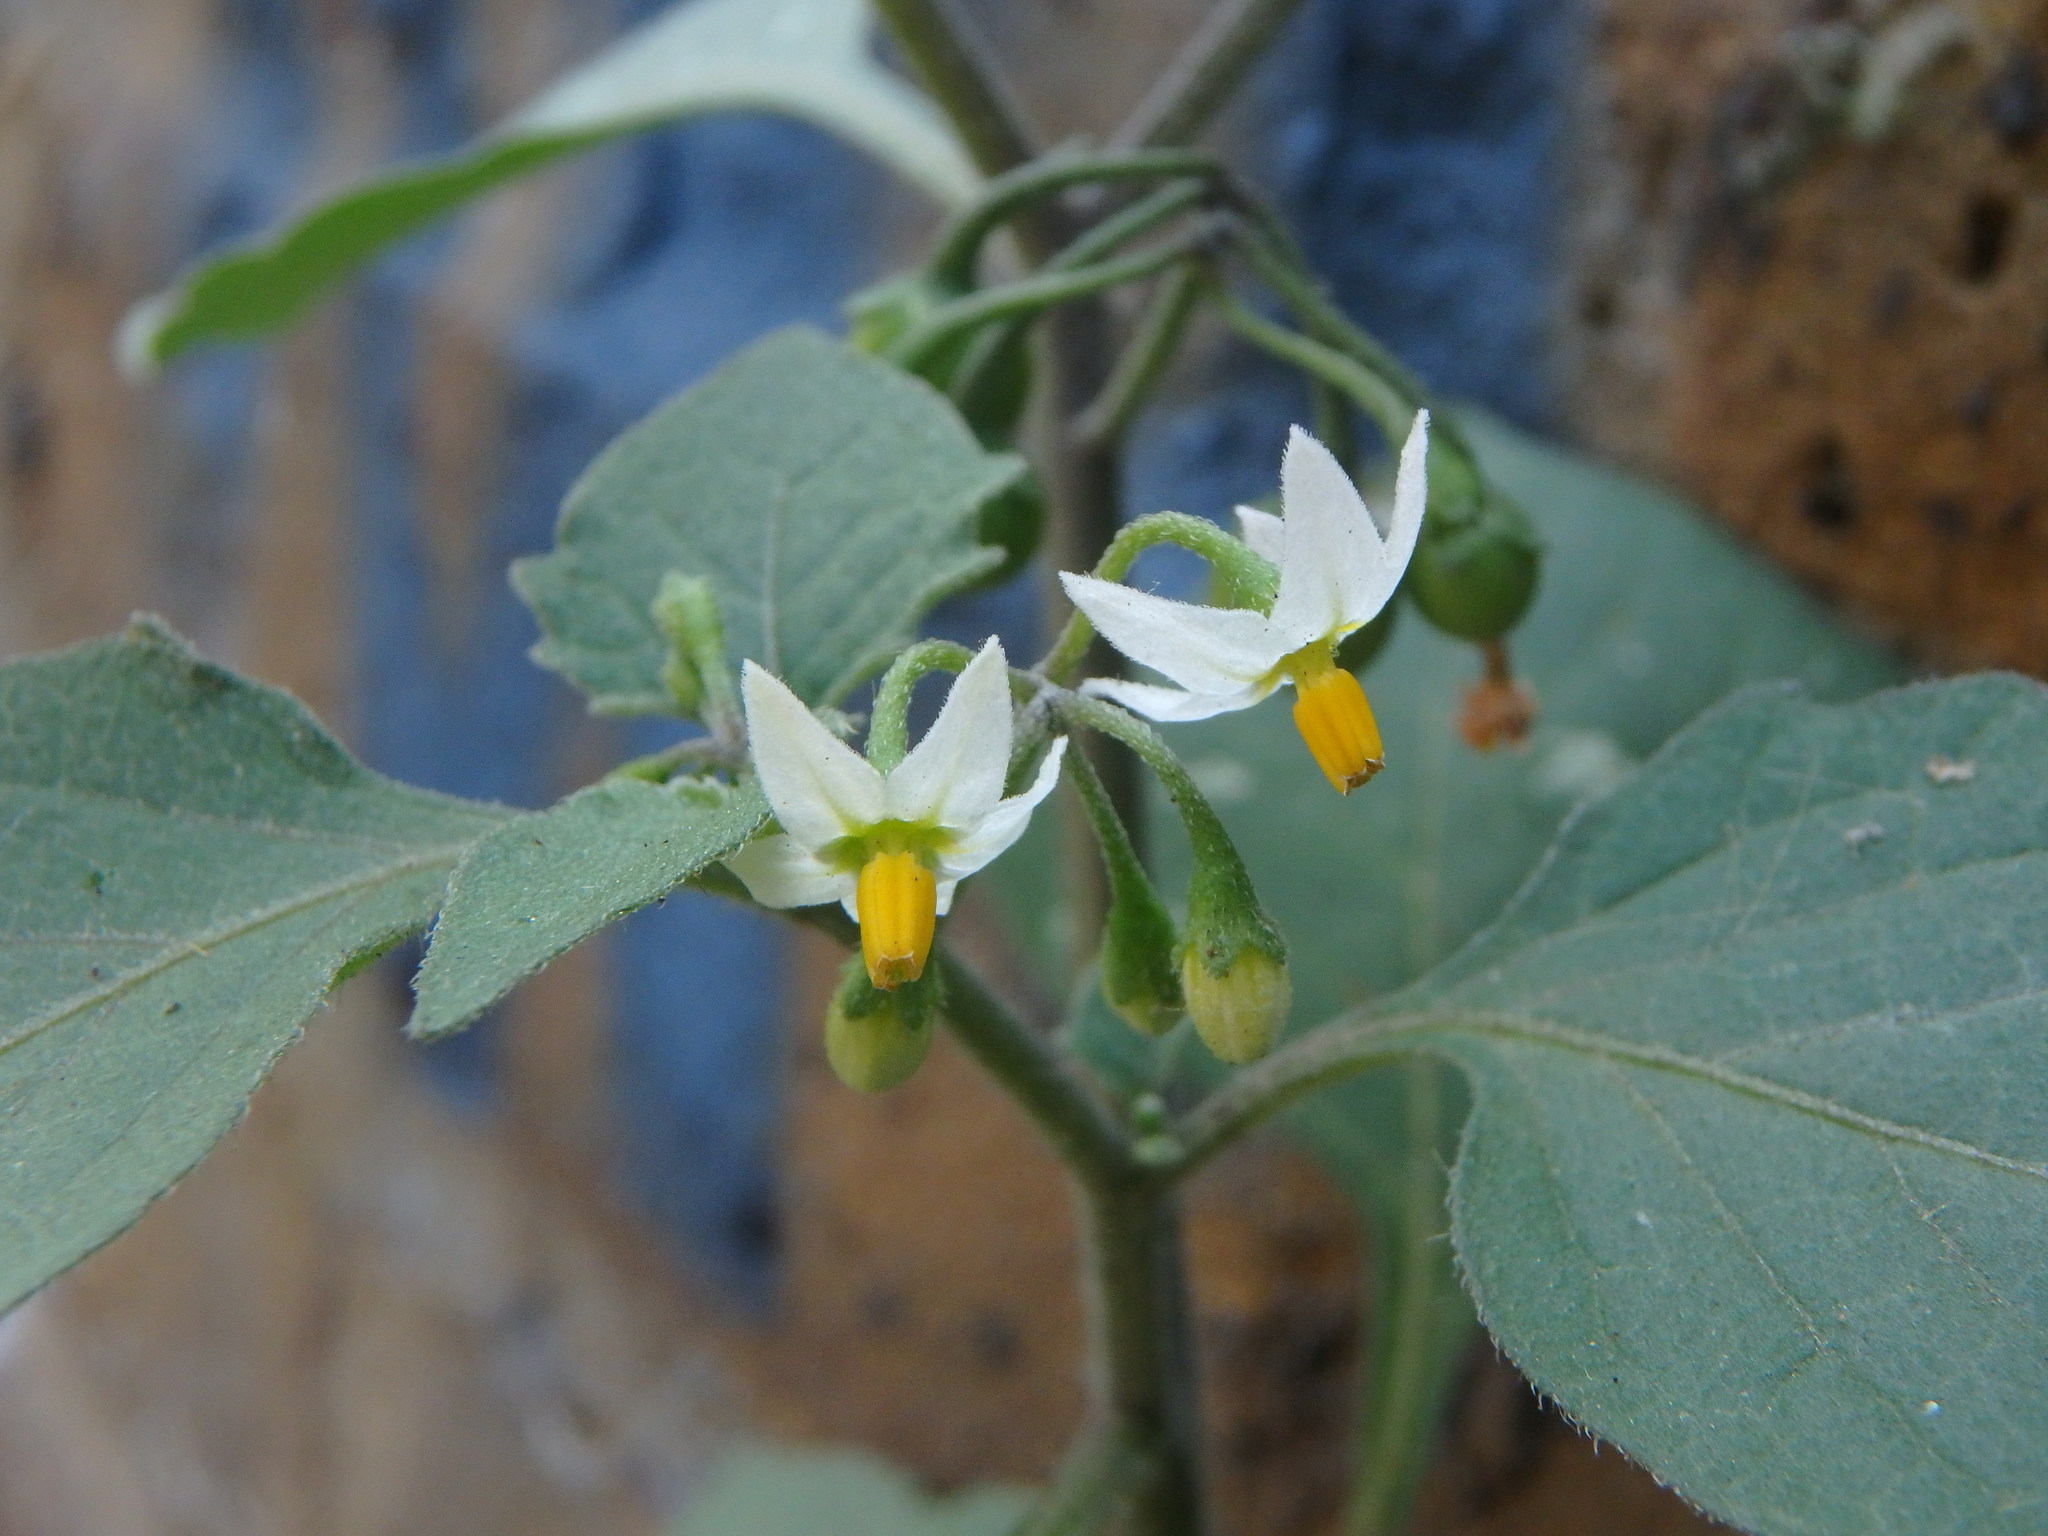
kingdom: Plantae
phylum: Tracheophyta
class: Magnoliopsida
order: Solanales
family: Solanaceae
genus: Solanum
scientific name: Solanum nigrum
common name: Black nightshade
